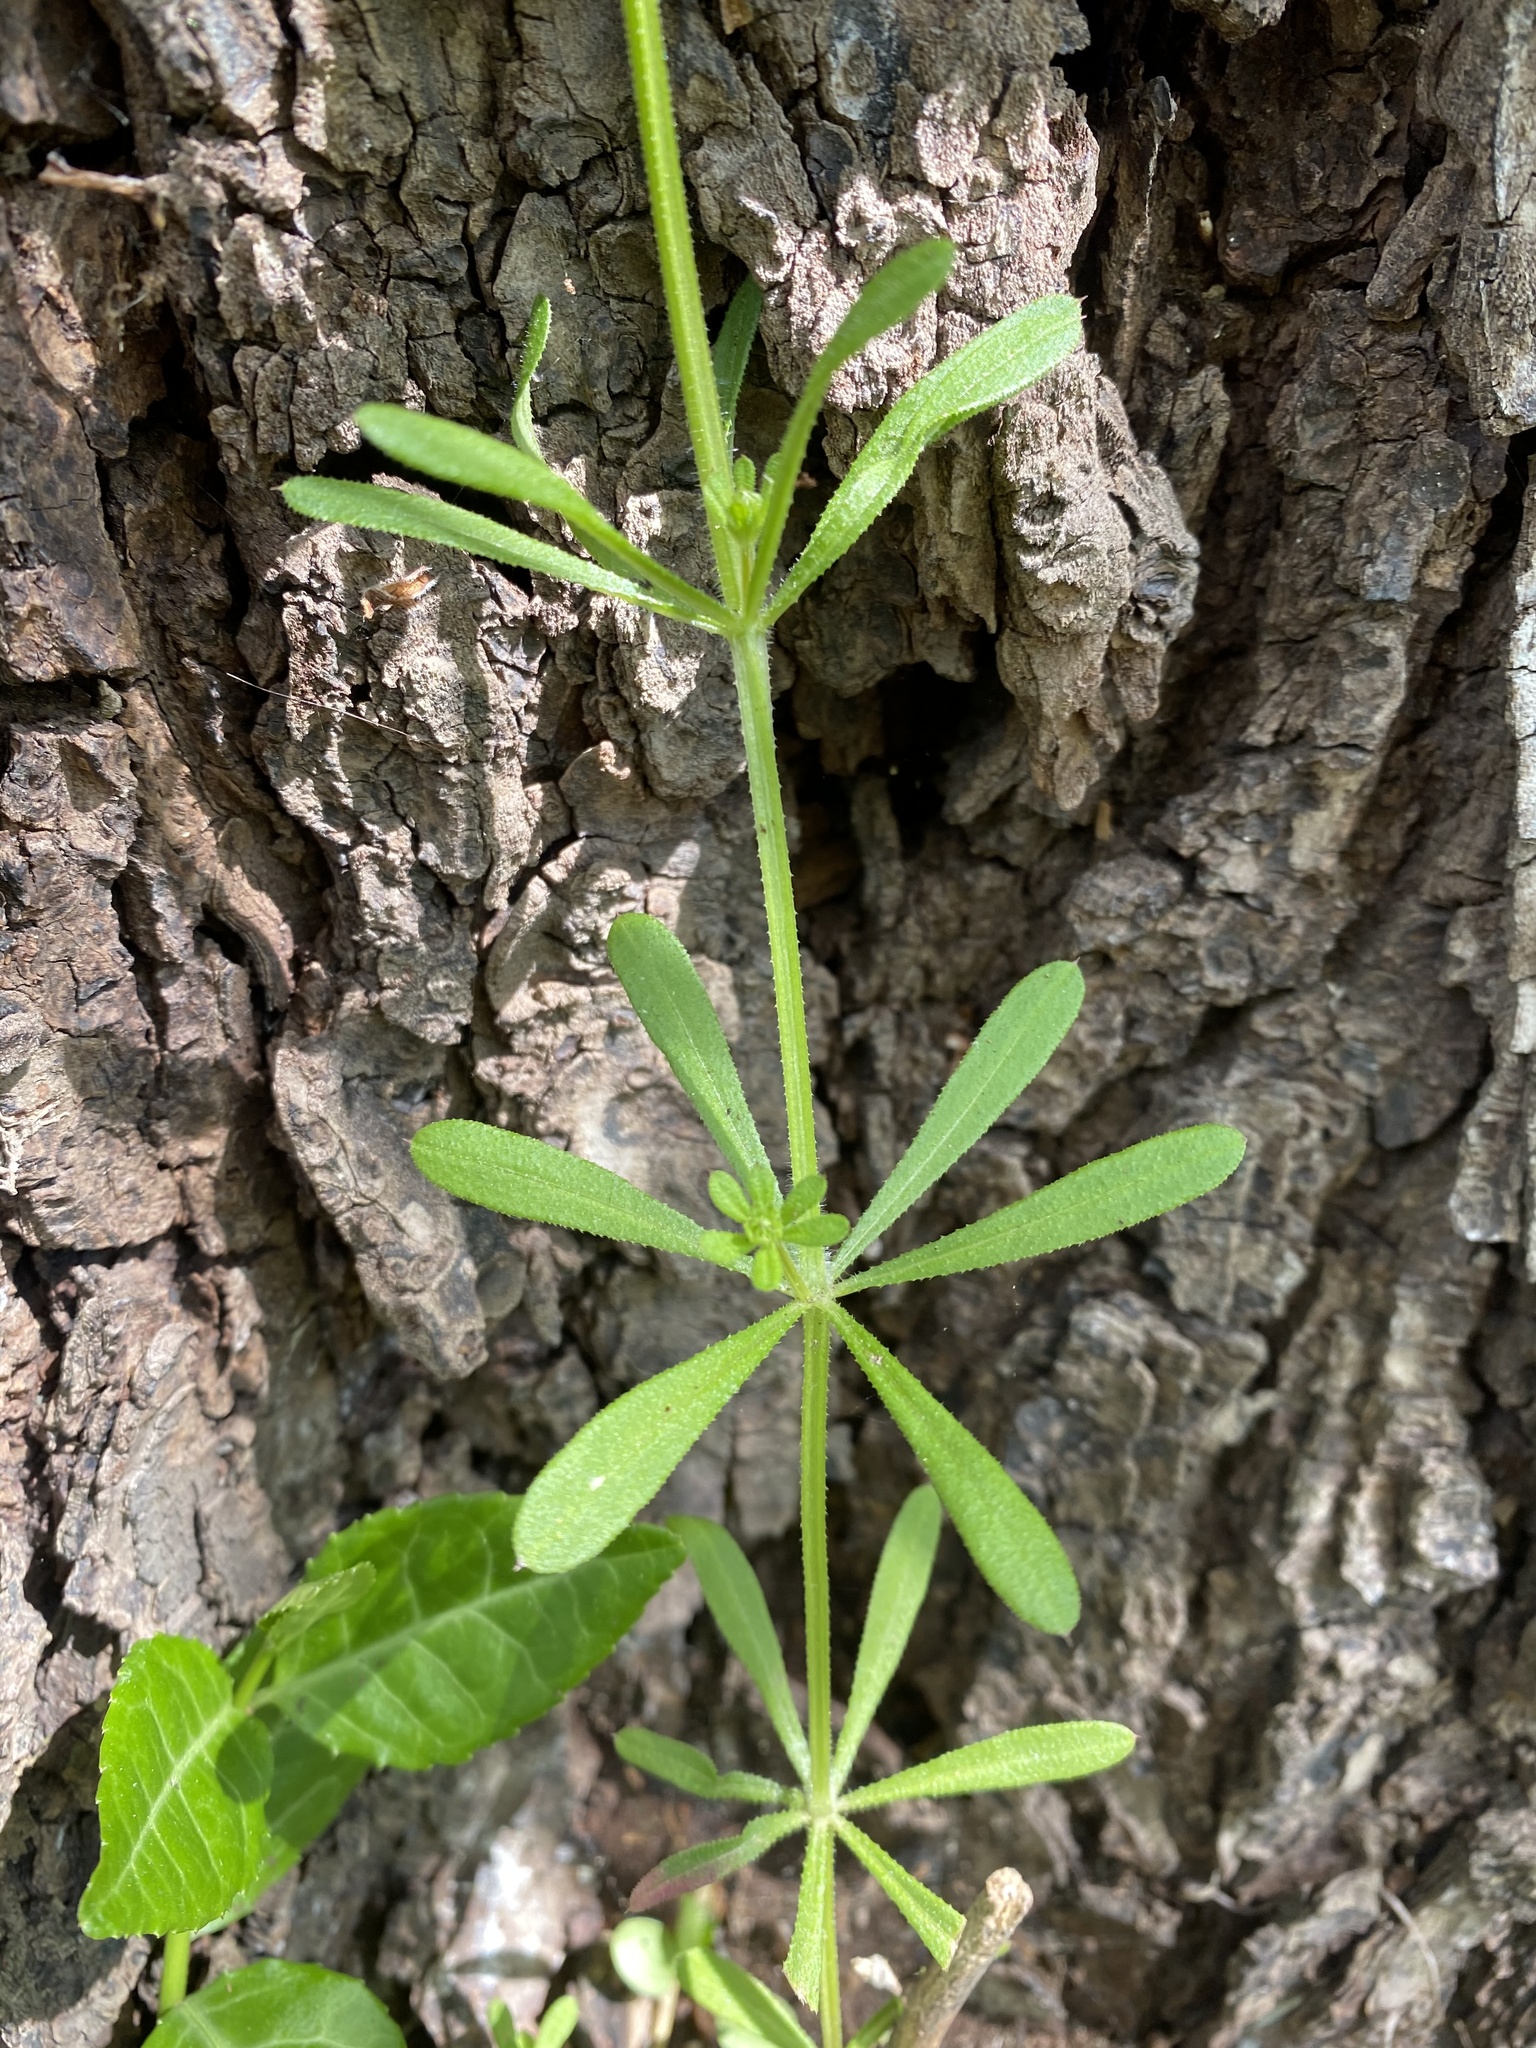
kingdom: Plantae
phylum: Tracheophyta
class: Magnoliopsida
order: Gentianales
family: Rubiaceae
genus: Galium
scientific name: Galium aparine
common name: Cleavers
